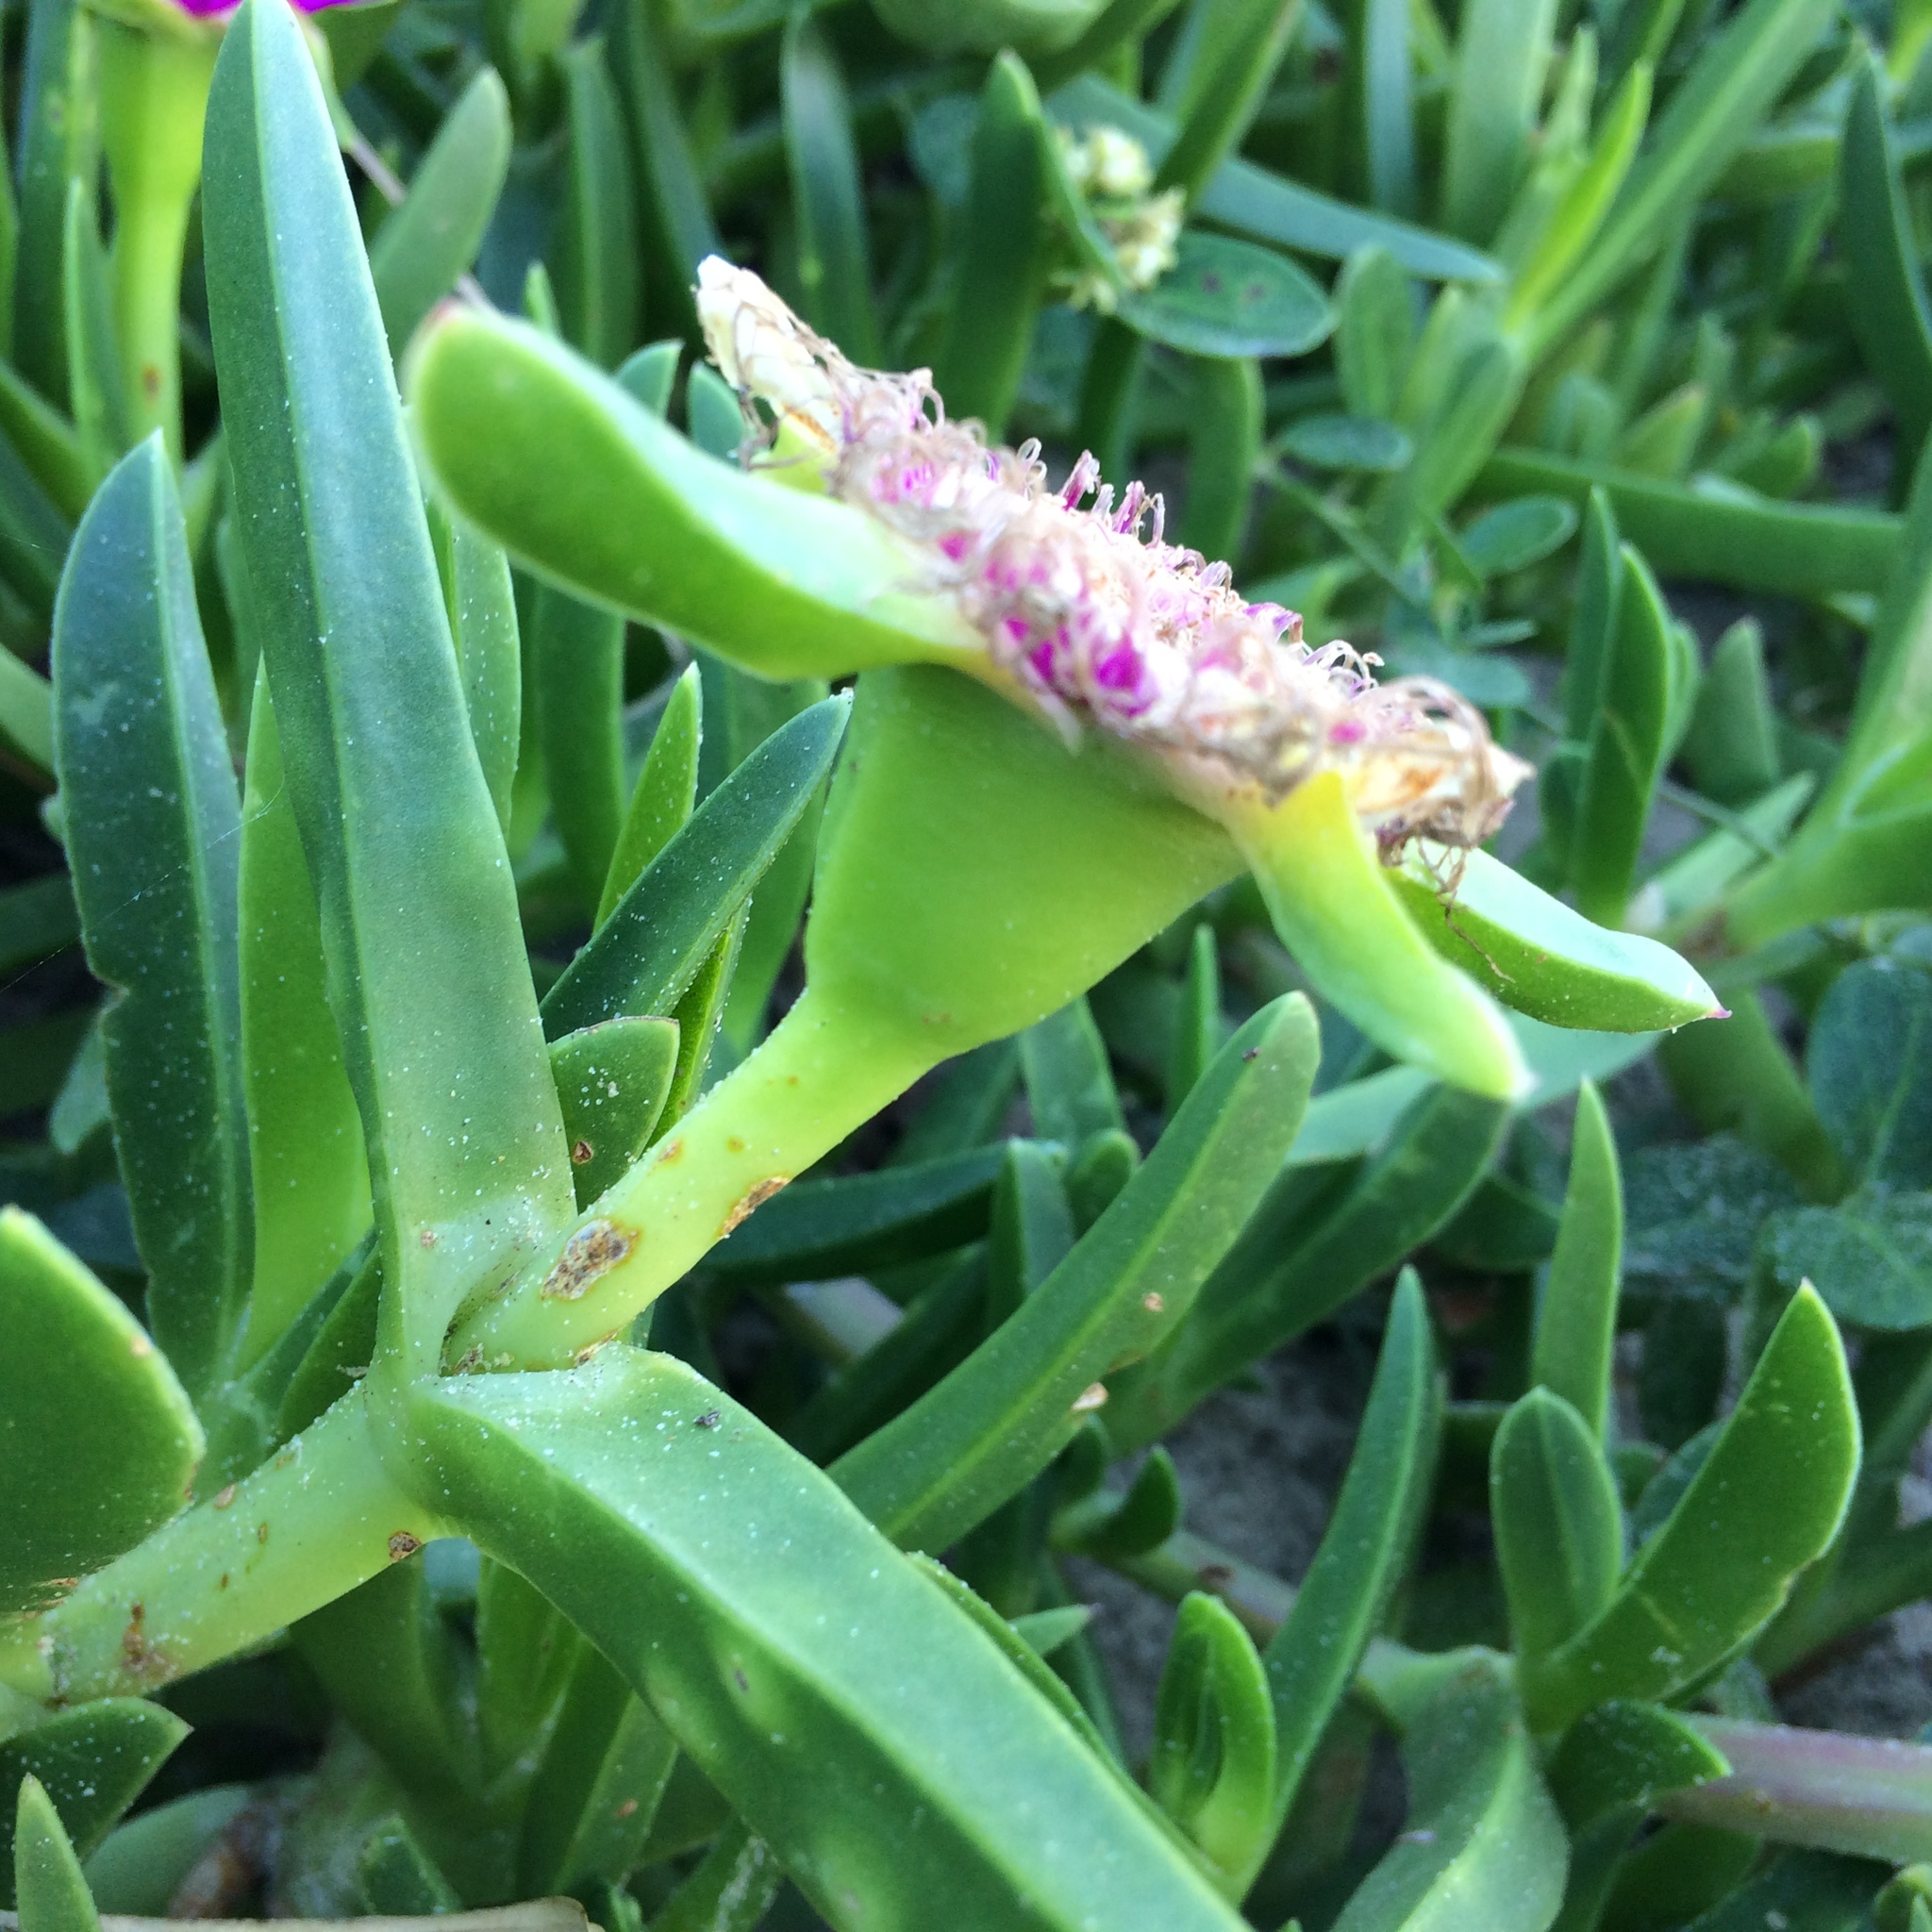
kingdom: Plantae
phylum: Tracheophyta
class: Magnoliopsida
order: Caryophyllales
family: Aizoaceae
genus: Carpobrotus
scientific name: Carpobrotus deliciosus
